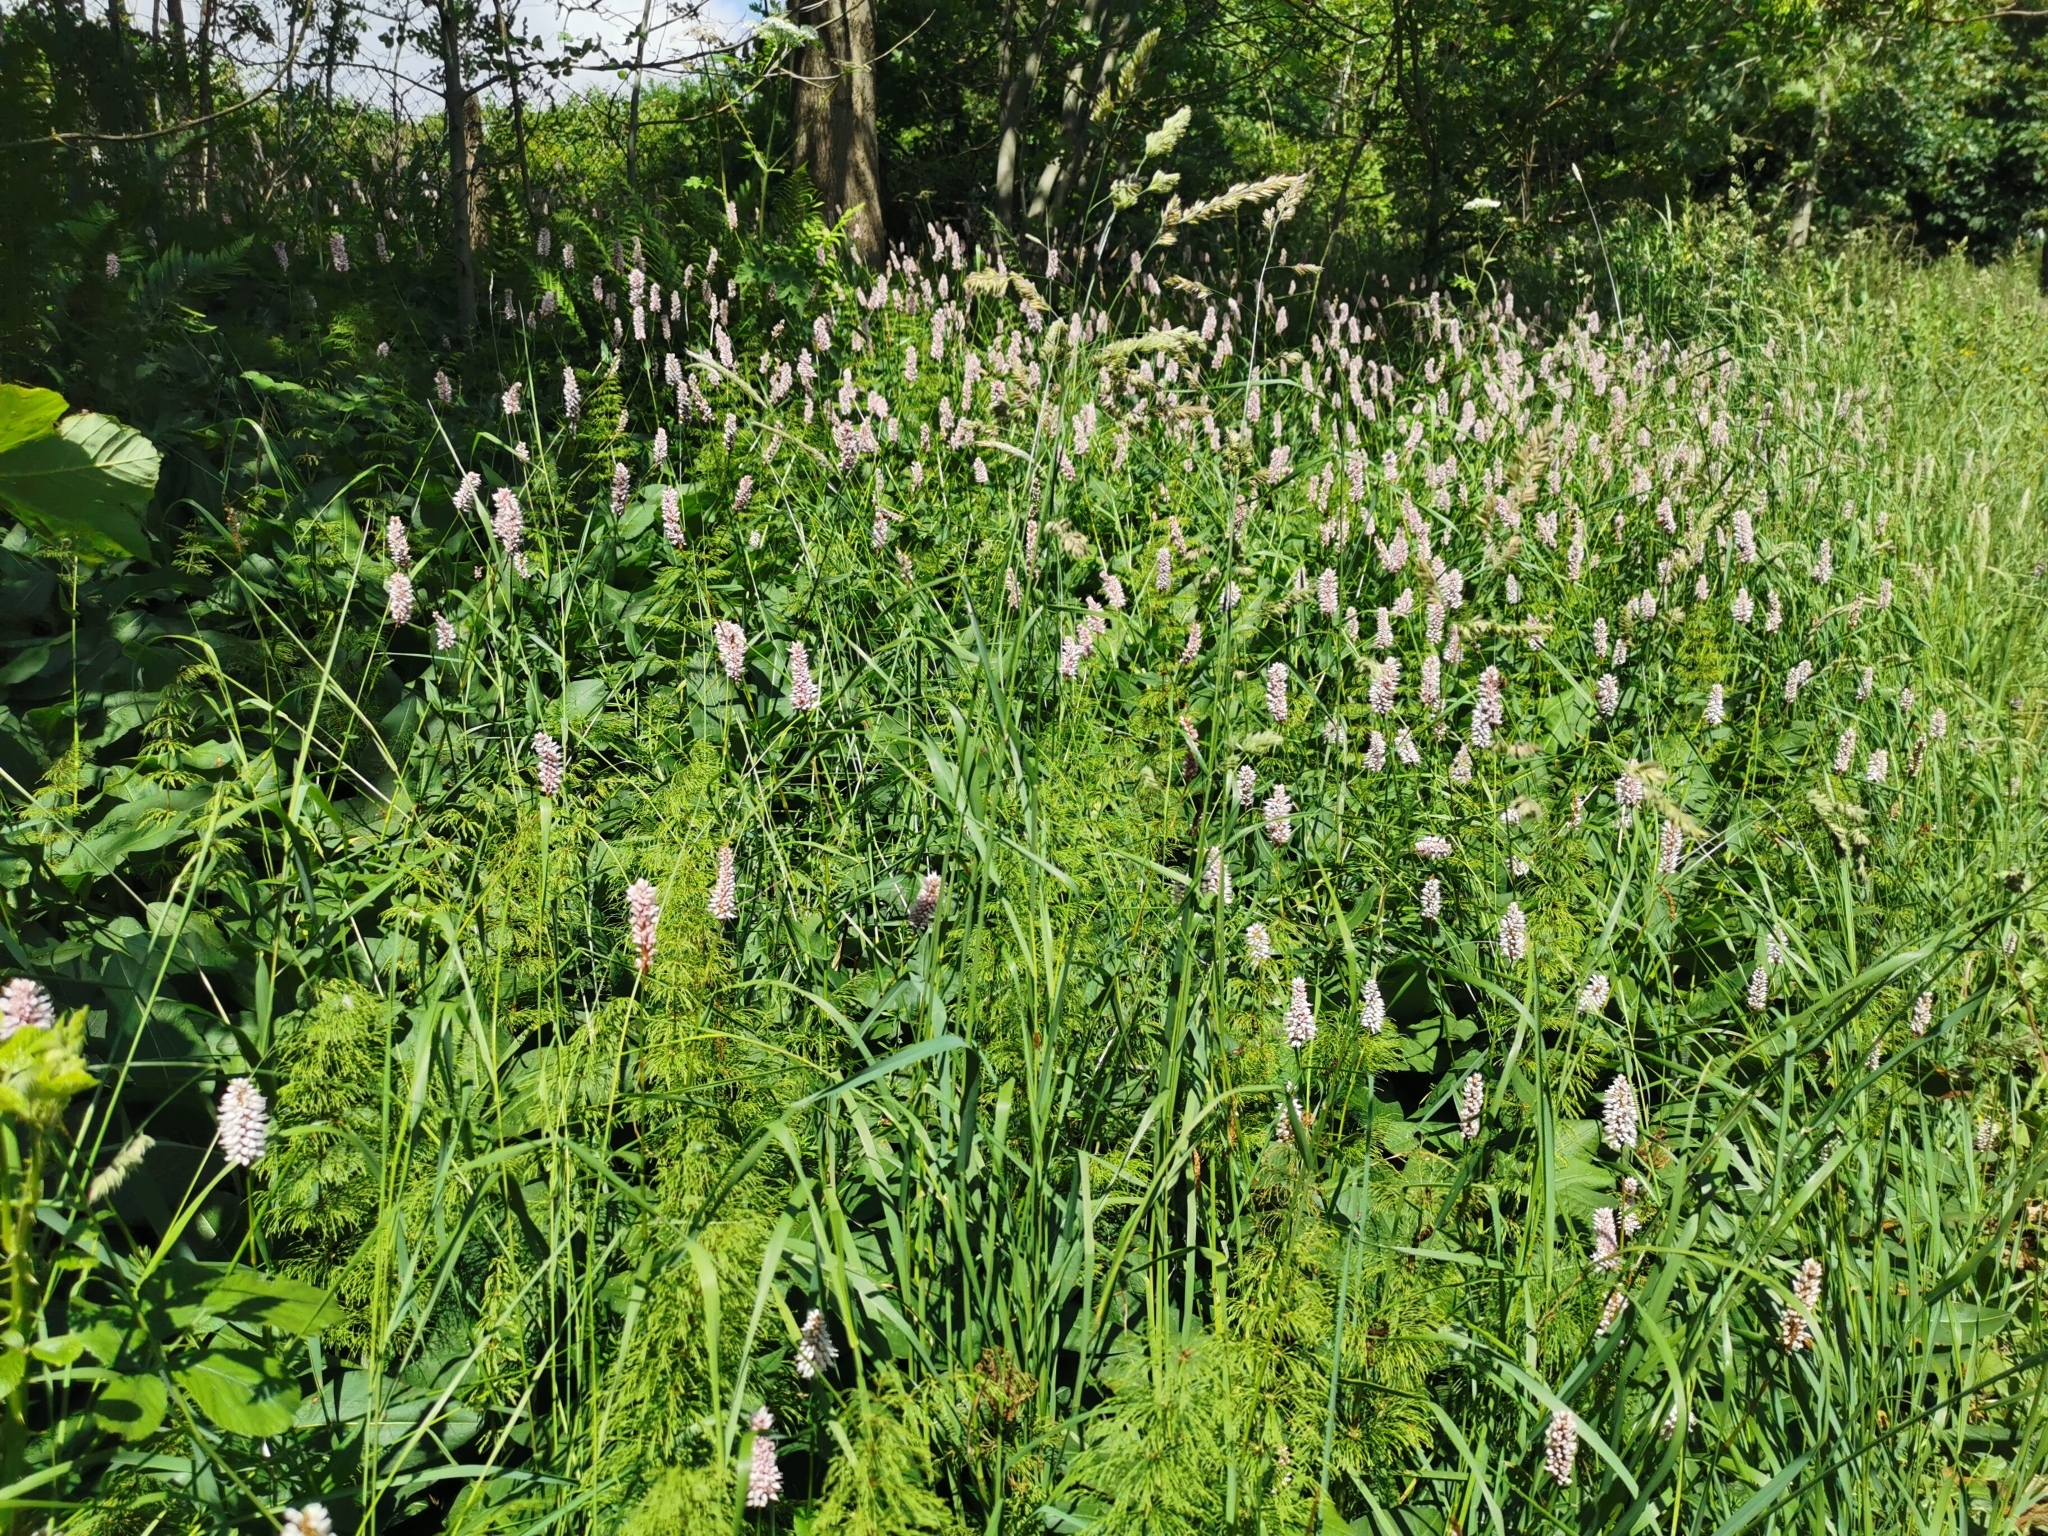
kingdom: Plantae
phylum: Tracheophyta
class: Magnoliopsida
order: Caryophyllales
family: Polygonaceae
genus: Bistorta
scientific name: Bistorta officinalis
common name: Common bistort
